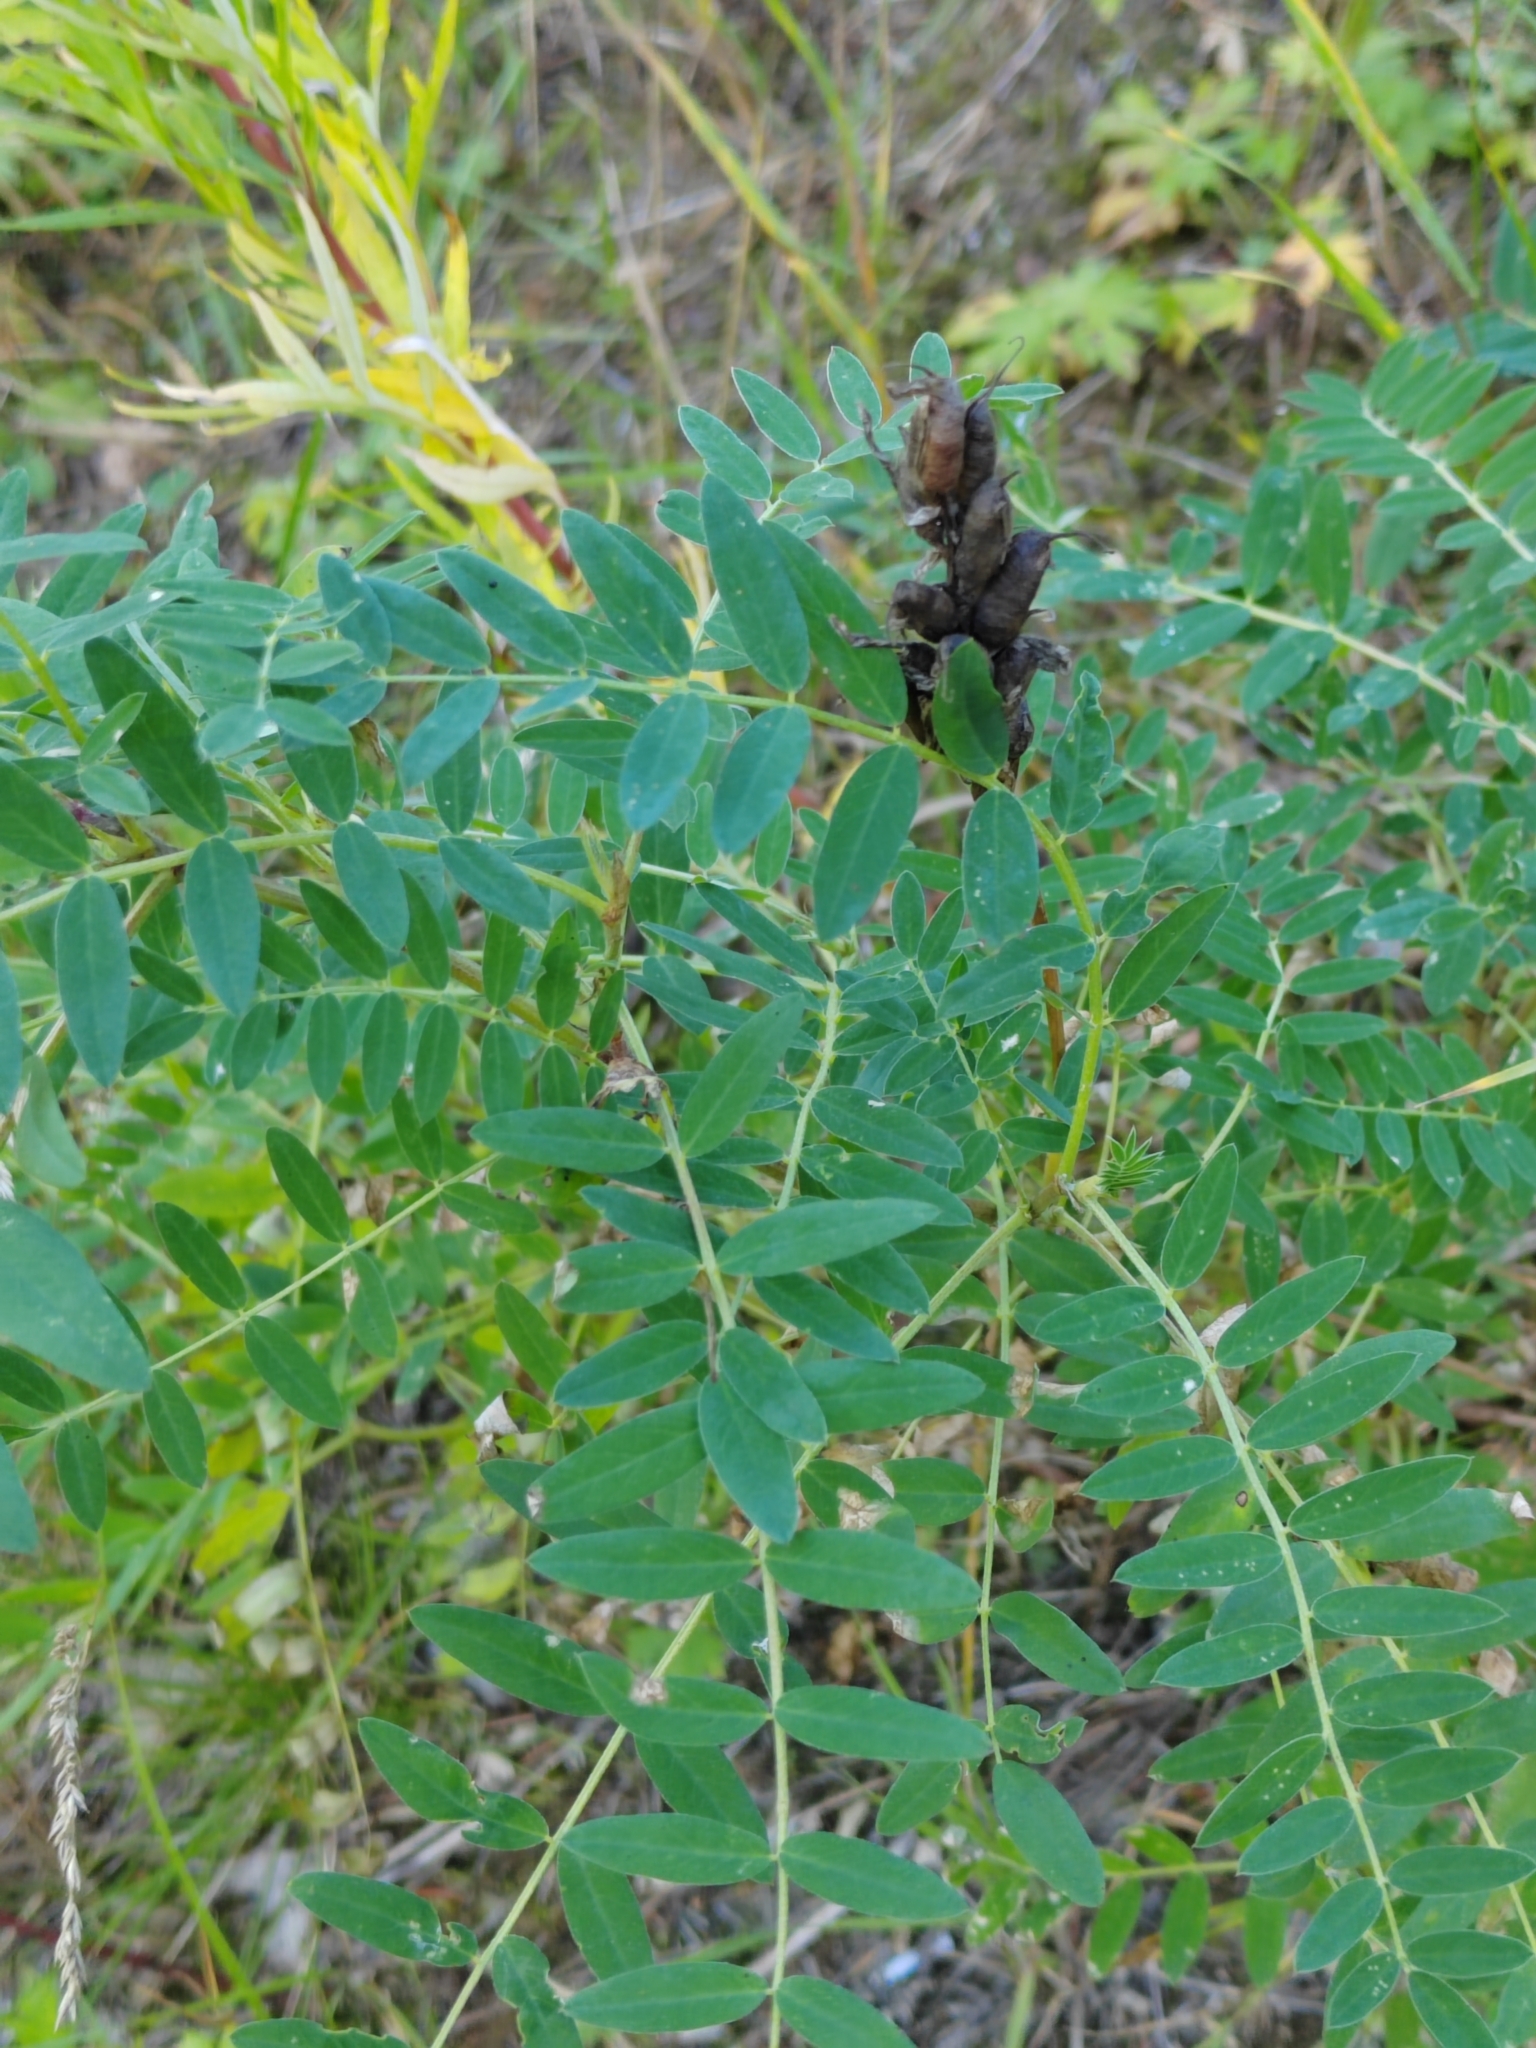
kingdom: Plantae
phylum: Tracheophyta
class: Magnoliopsida
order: Fabales
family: Fabaceae
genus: Astragalus
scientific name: Astragalus uliginosus
